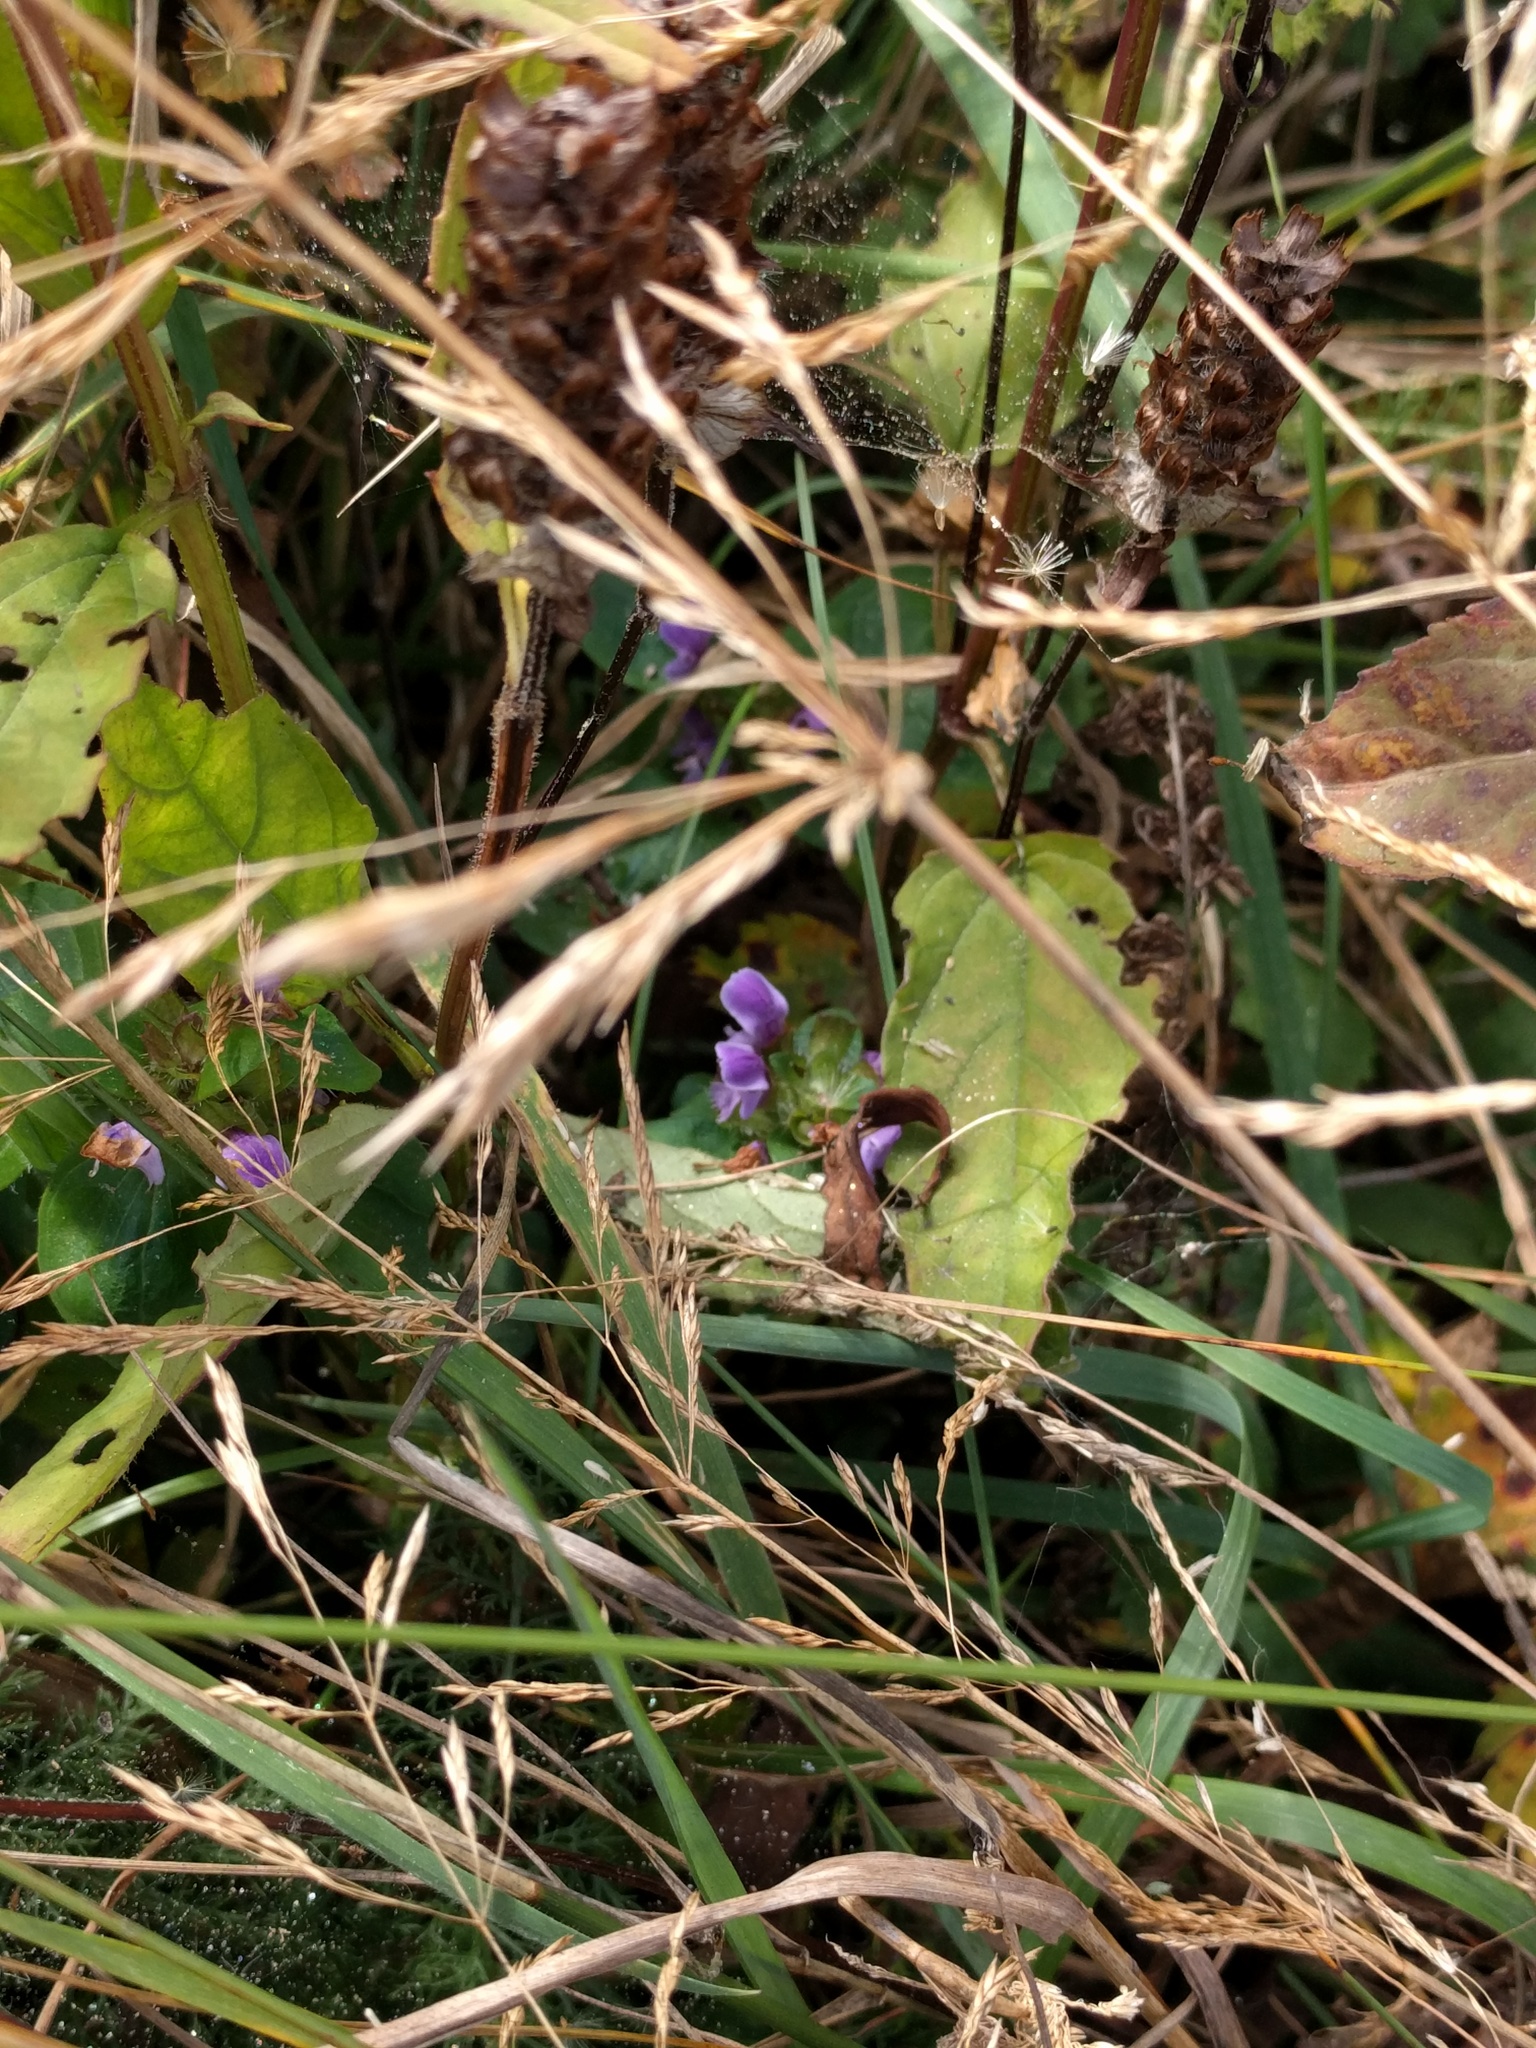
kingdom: Plantae
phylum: Tracheophyta
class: Magnoliopsida
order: Lamiales
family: Lamiaceae
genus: Prunella
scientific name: Prunella vulgaris
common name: Heal-all
